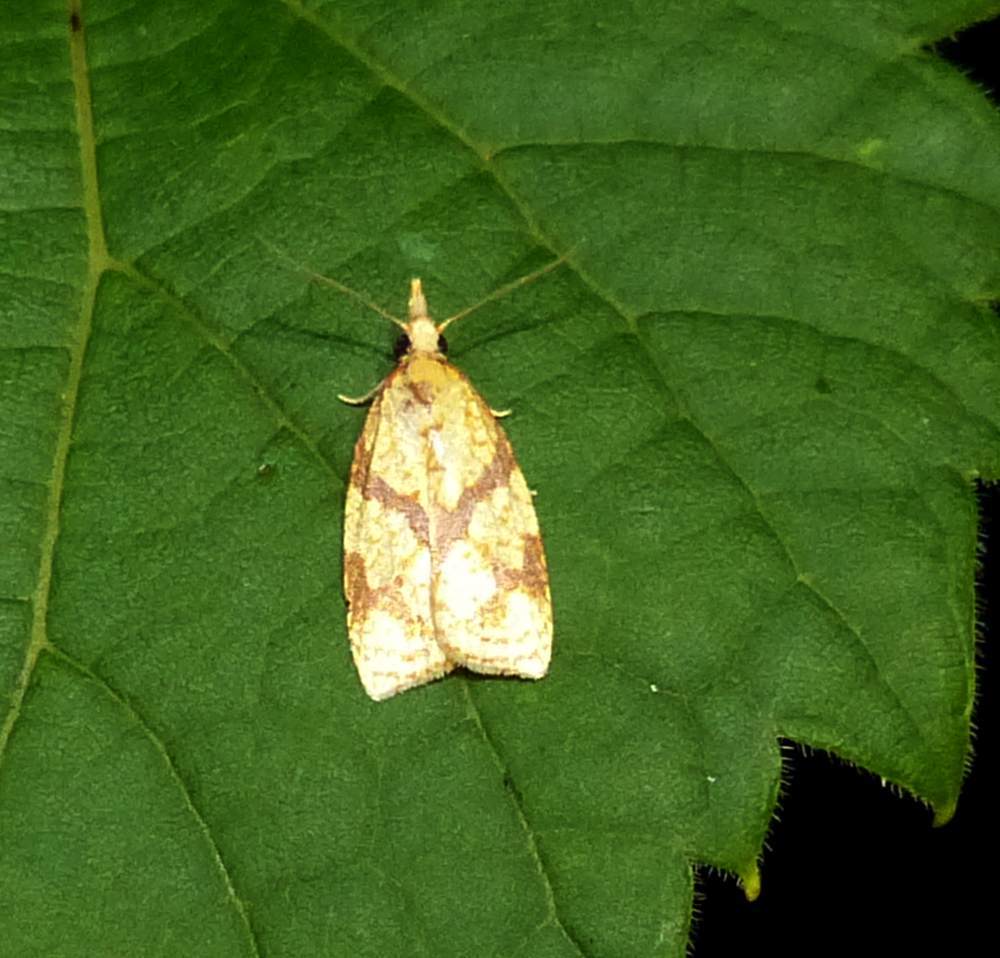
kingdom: Animalia
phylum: Arthropoda
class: Insecta
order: Lepidoptera
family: Tortricidae
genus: Sparganothis
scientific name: Sparganothis sulfureana
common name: Sparganothis fruitworm moth
